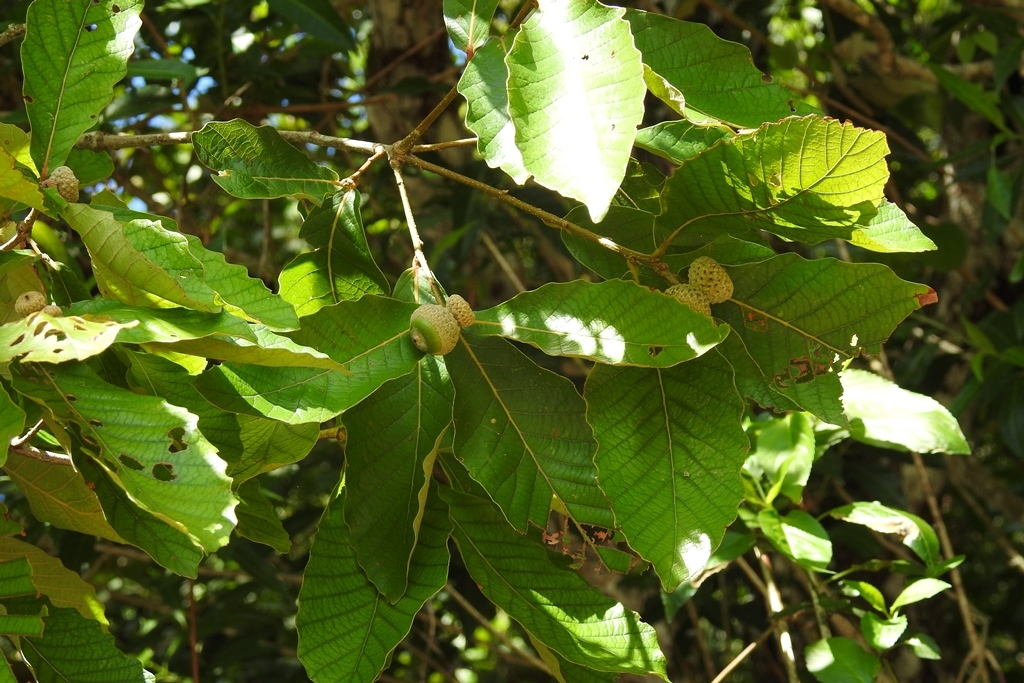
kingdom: Plantae
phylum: Tracheophyta
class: Magnoliopsida
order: Fagales
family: Fagaceae
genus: Quercus
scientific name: Quercus purulhana
